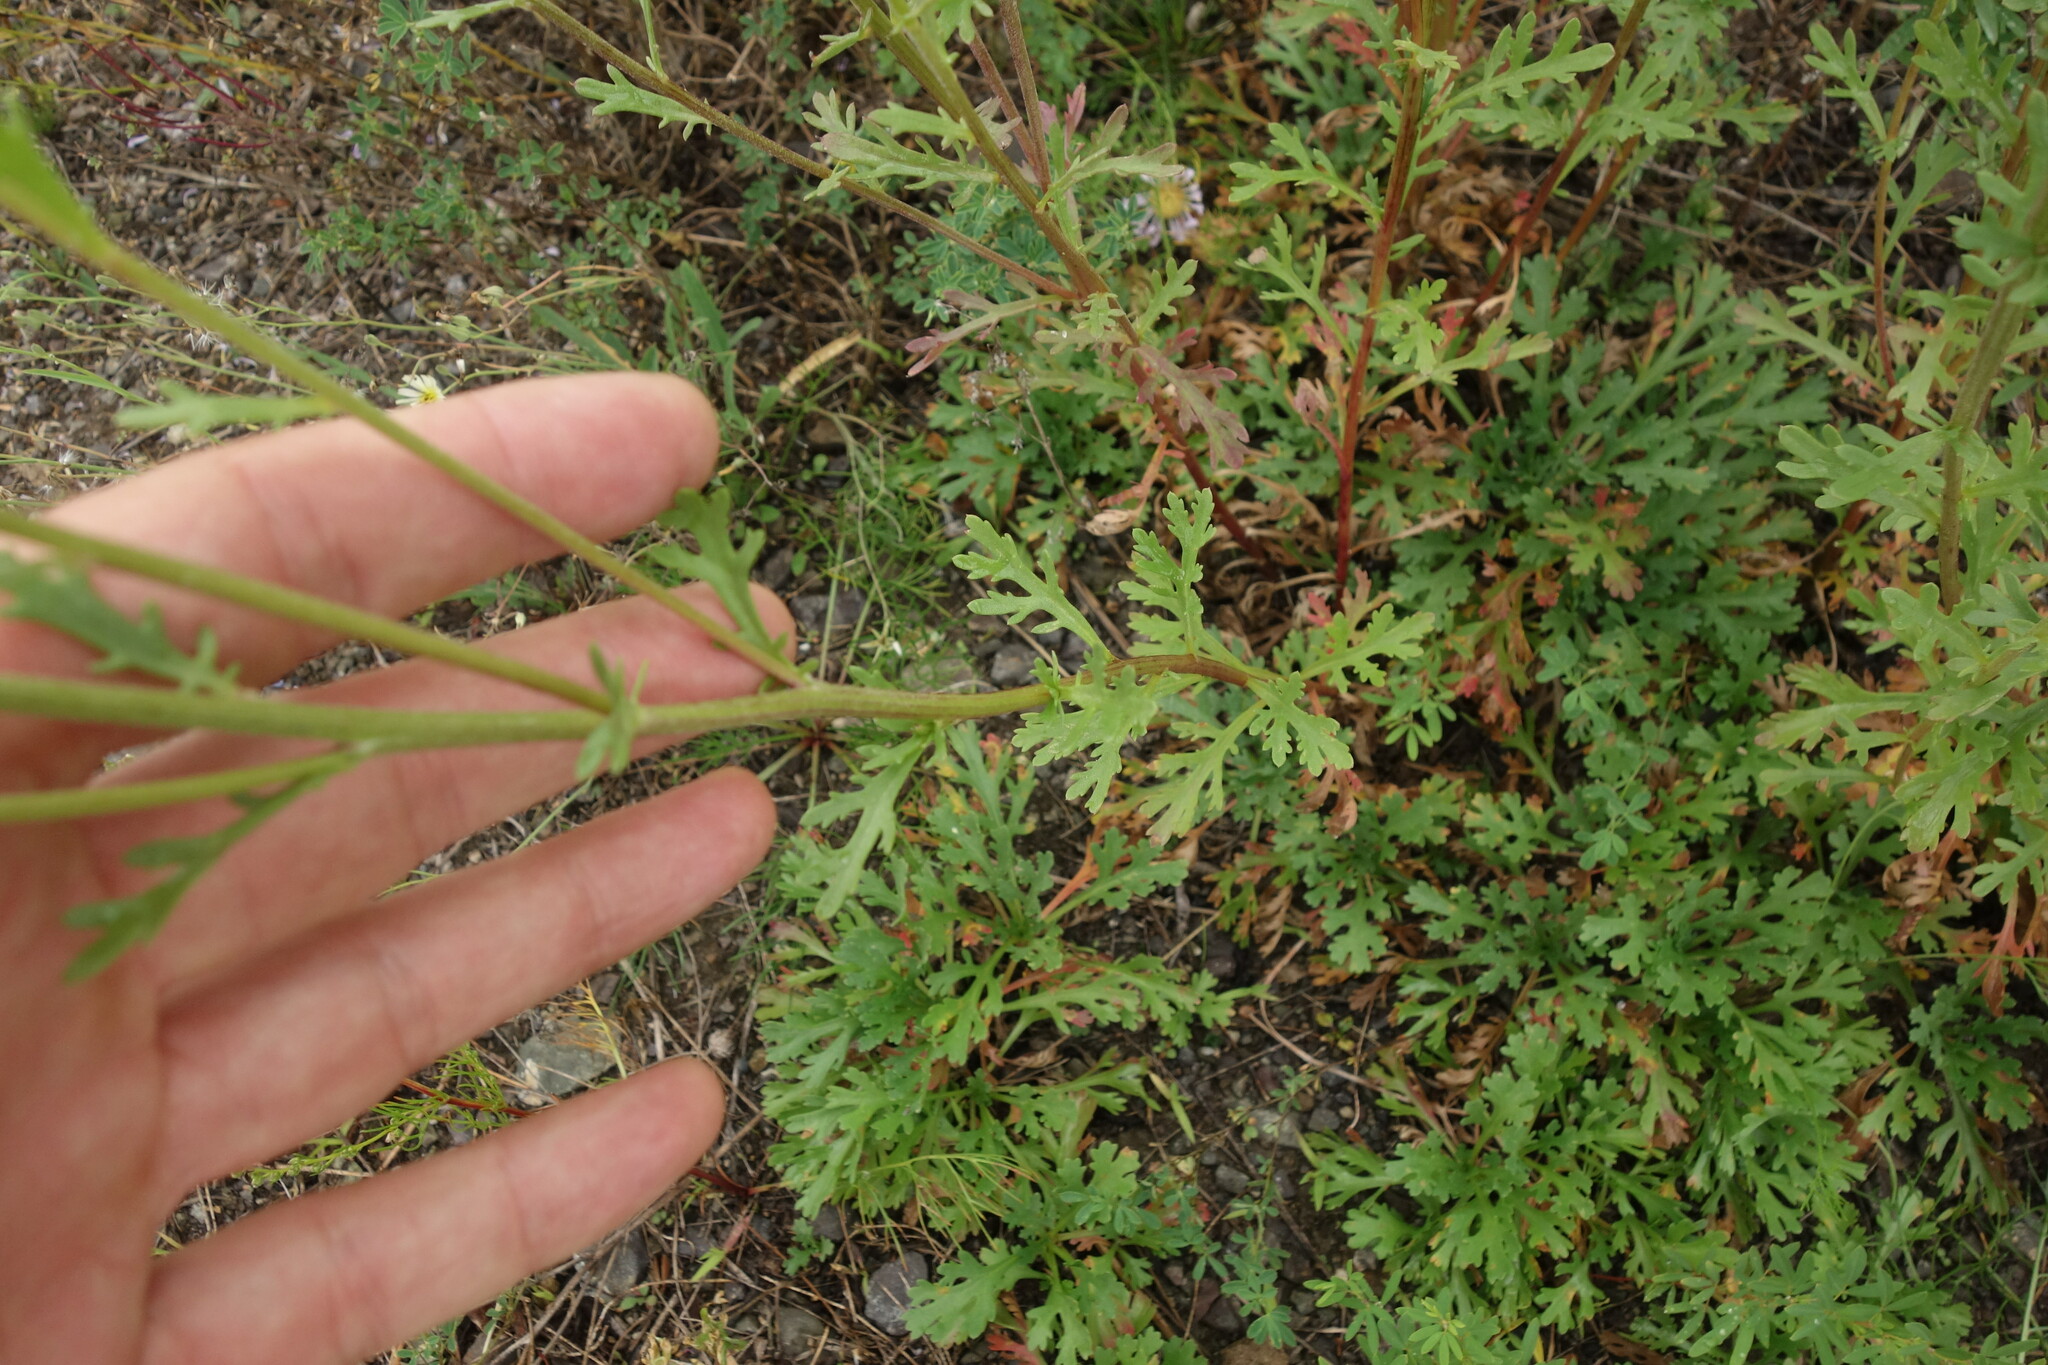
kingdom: Plantae
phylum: Tracheophyta
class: Magnoliopsida
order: Asterales
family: Asteraceae
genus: Chrysanthemum
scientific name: Chrysanthemum zawadzkii
